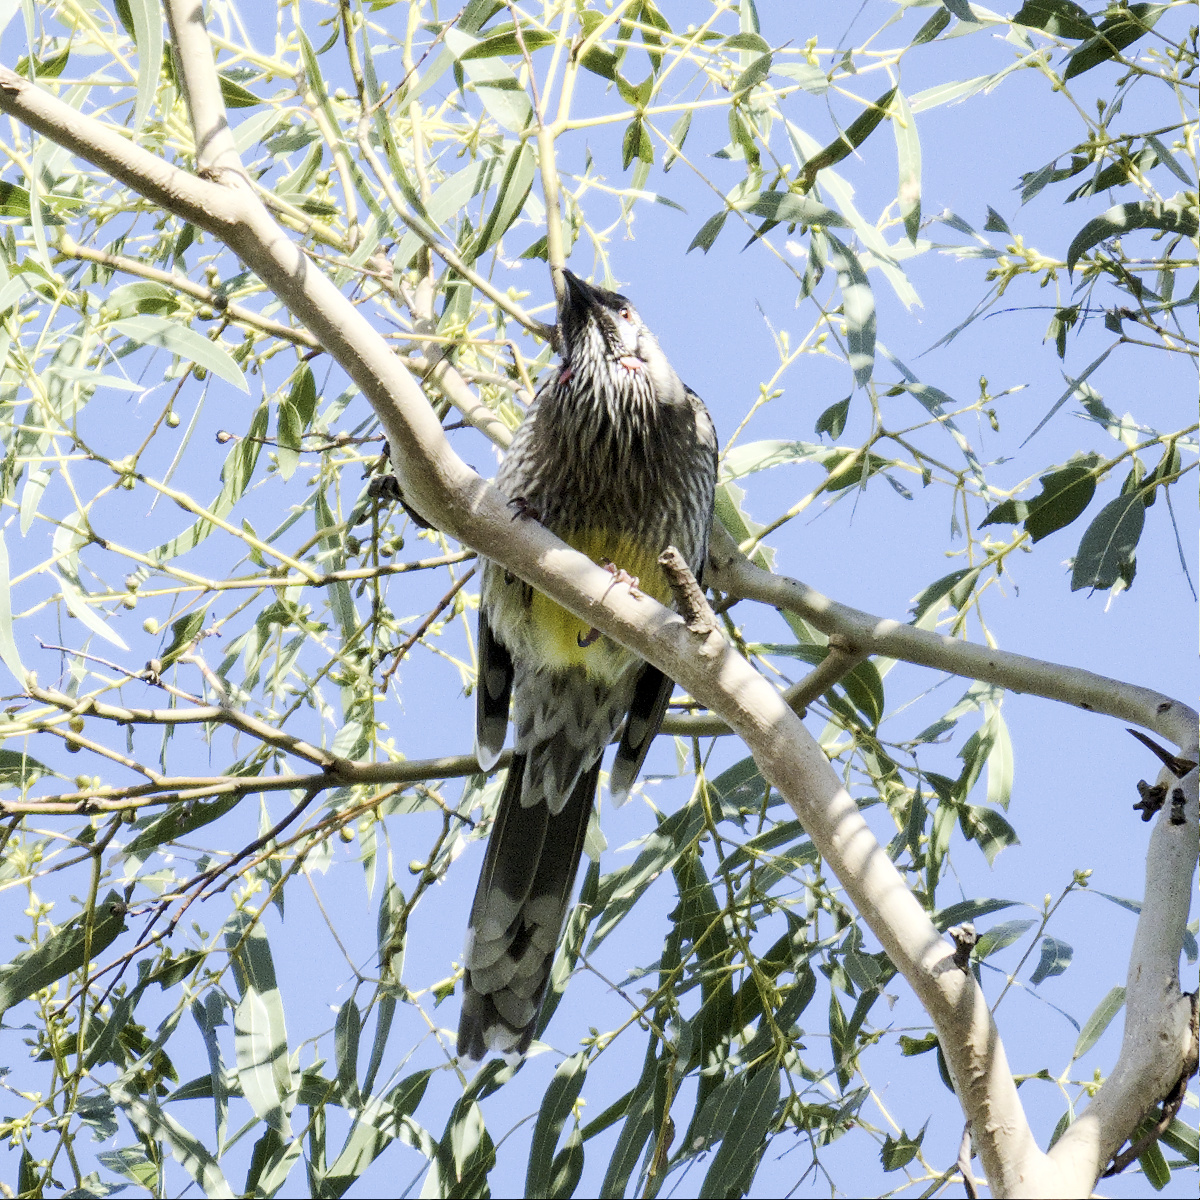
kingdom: Animalia
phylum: Chordata
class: Aves
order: Passeriformes
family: Meliphagidae
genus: Anthochaera
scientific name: Anthochaera carunculata
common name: Red wattlebird
